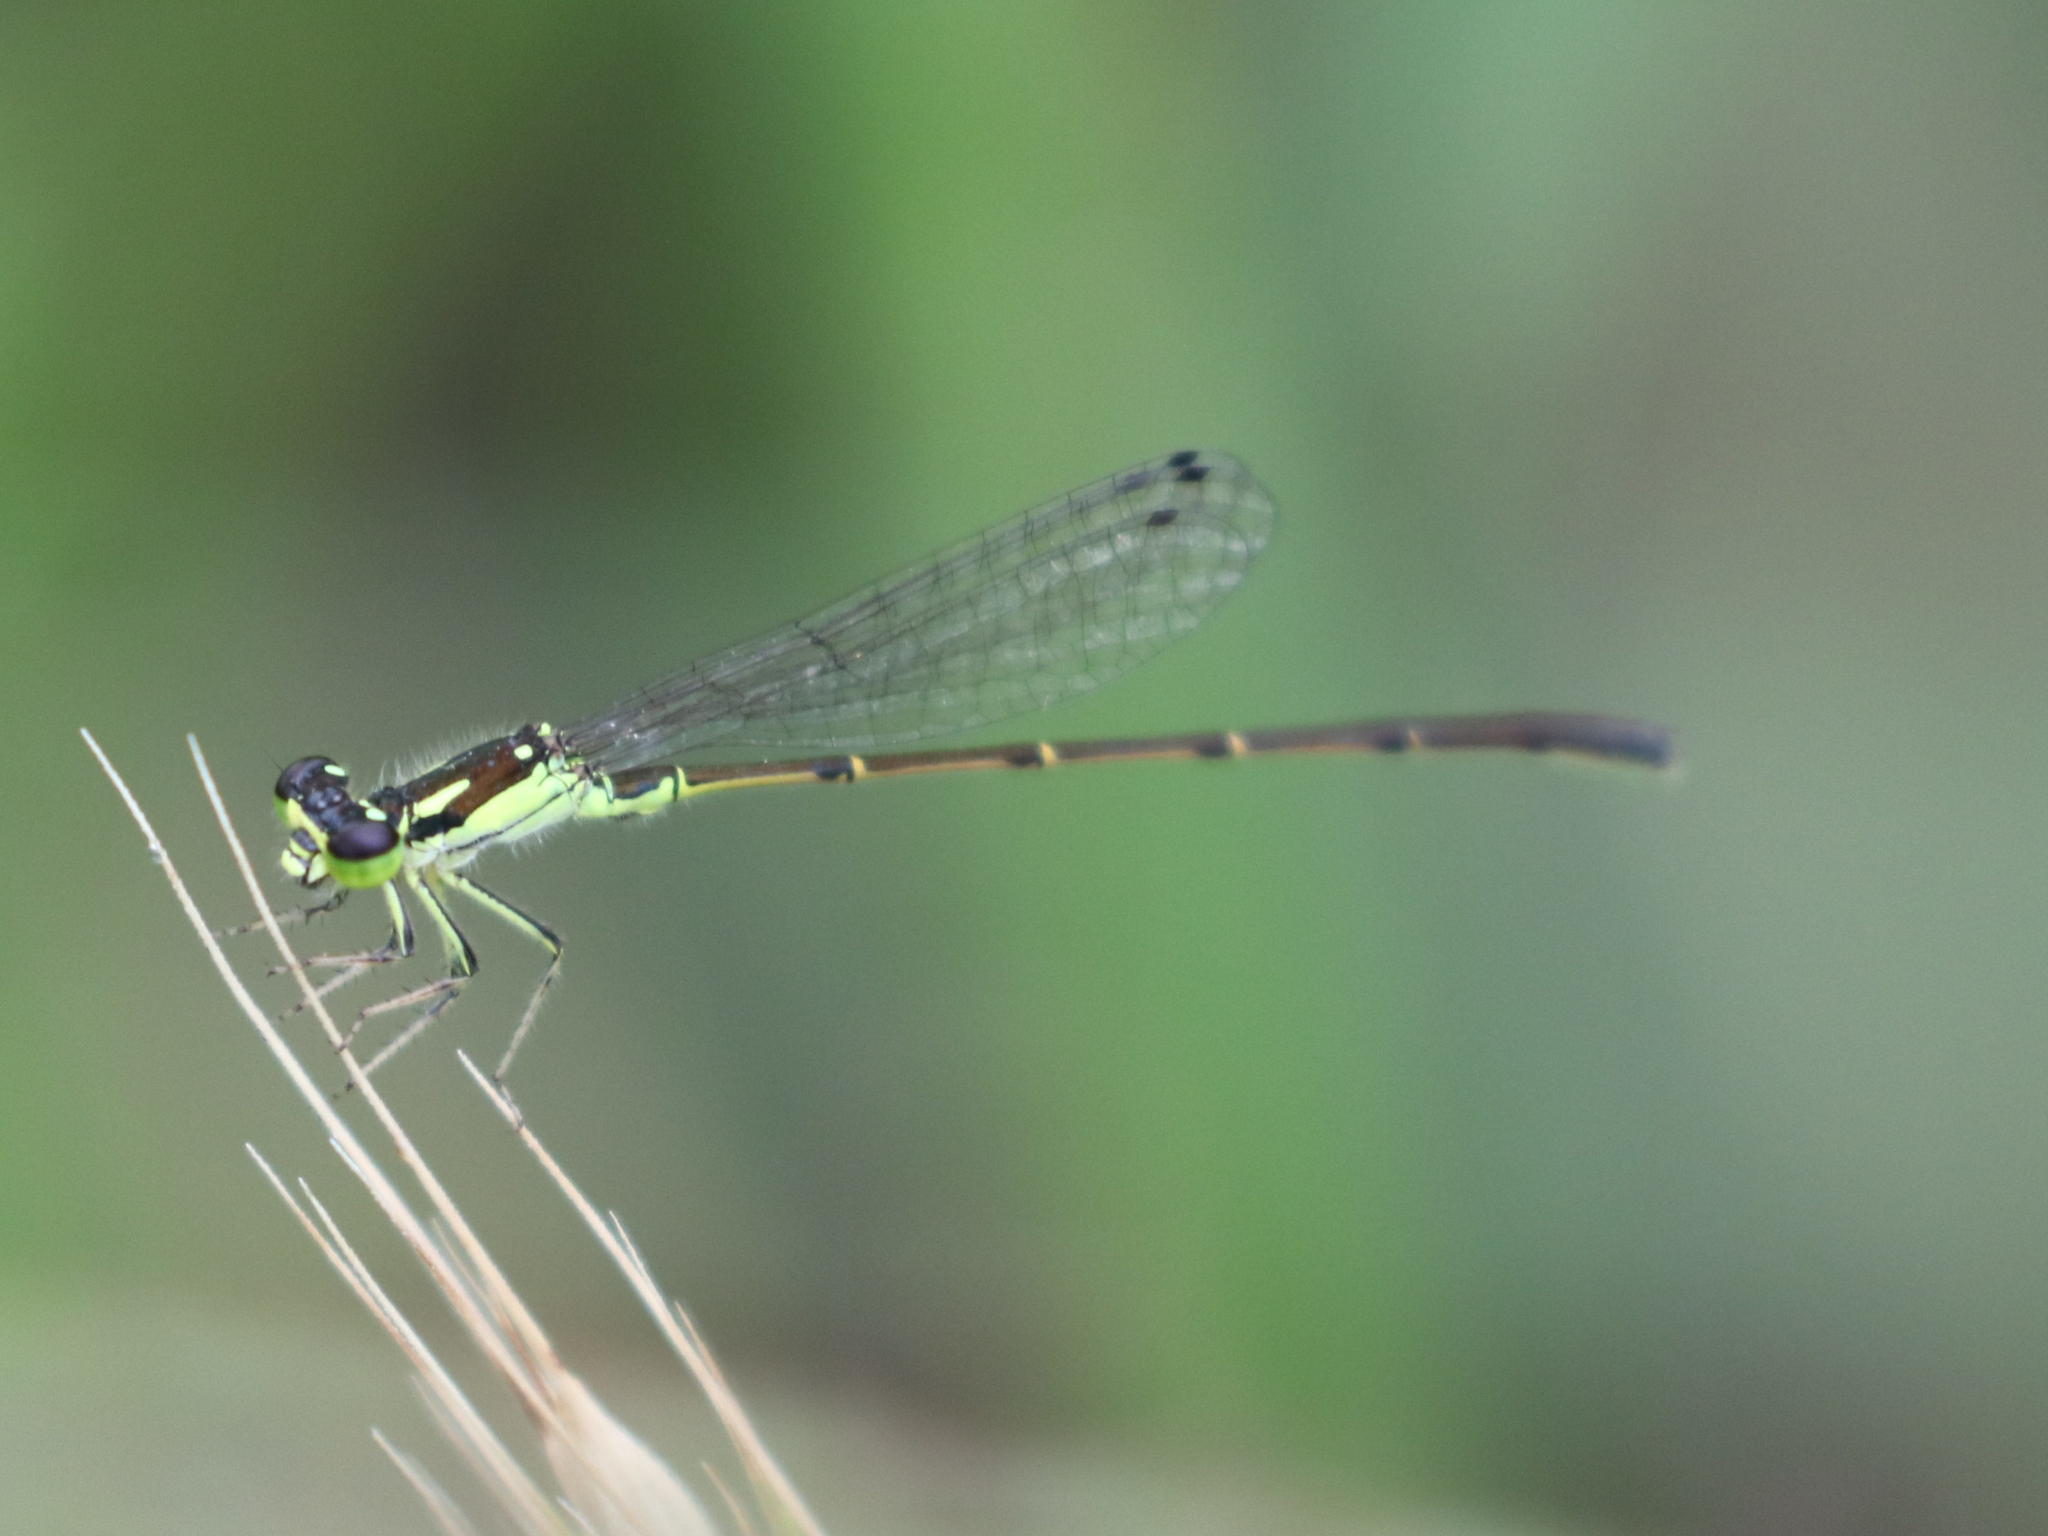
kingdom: Animalia
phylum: Arthropoda
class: Insecta
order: Odonata
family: Coenagrionidae
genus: Ischnura
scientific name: Ischnura posita
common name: Fragile forktail
